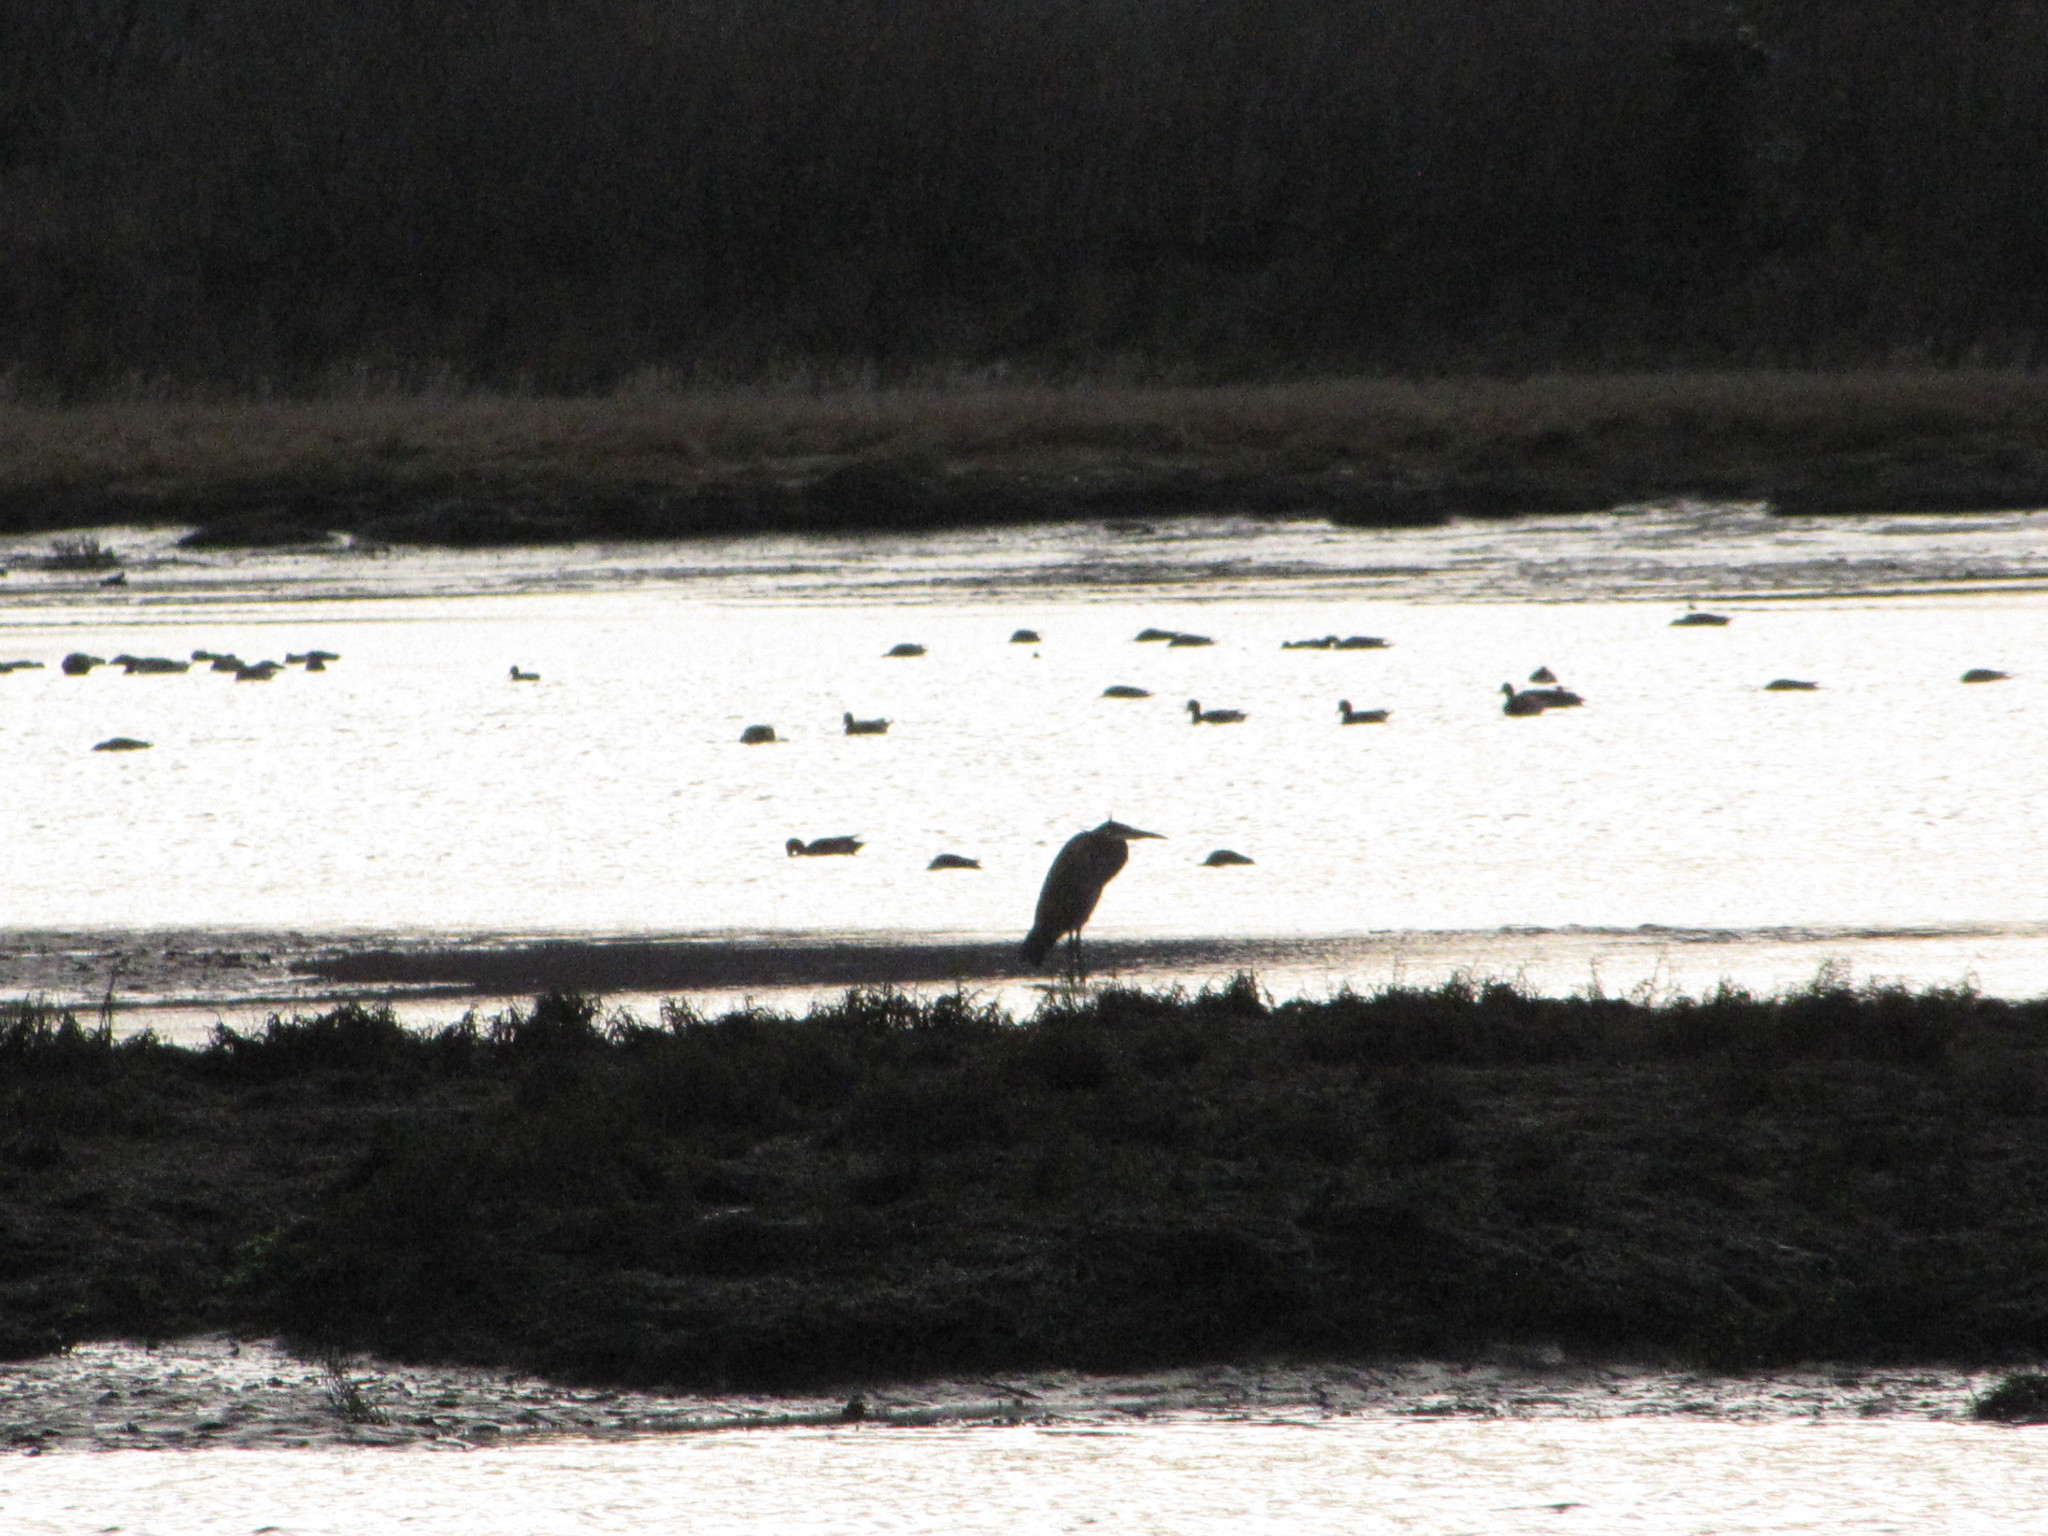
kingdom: Animalia
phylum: Chordata
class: Aves
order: Pelecaniformes
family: Ardeidae
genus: Ardea
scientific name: Ardea herodias
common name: Great blue heron
